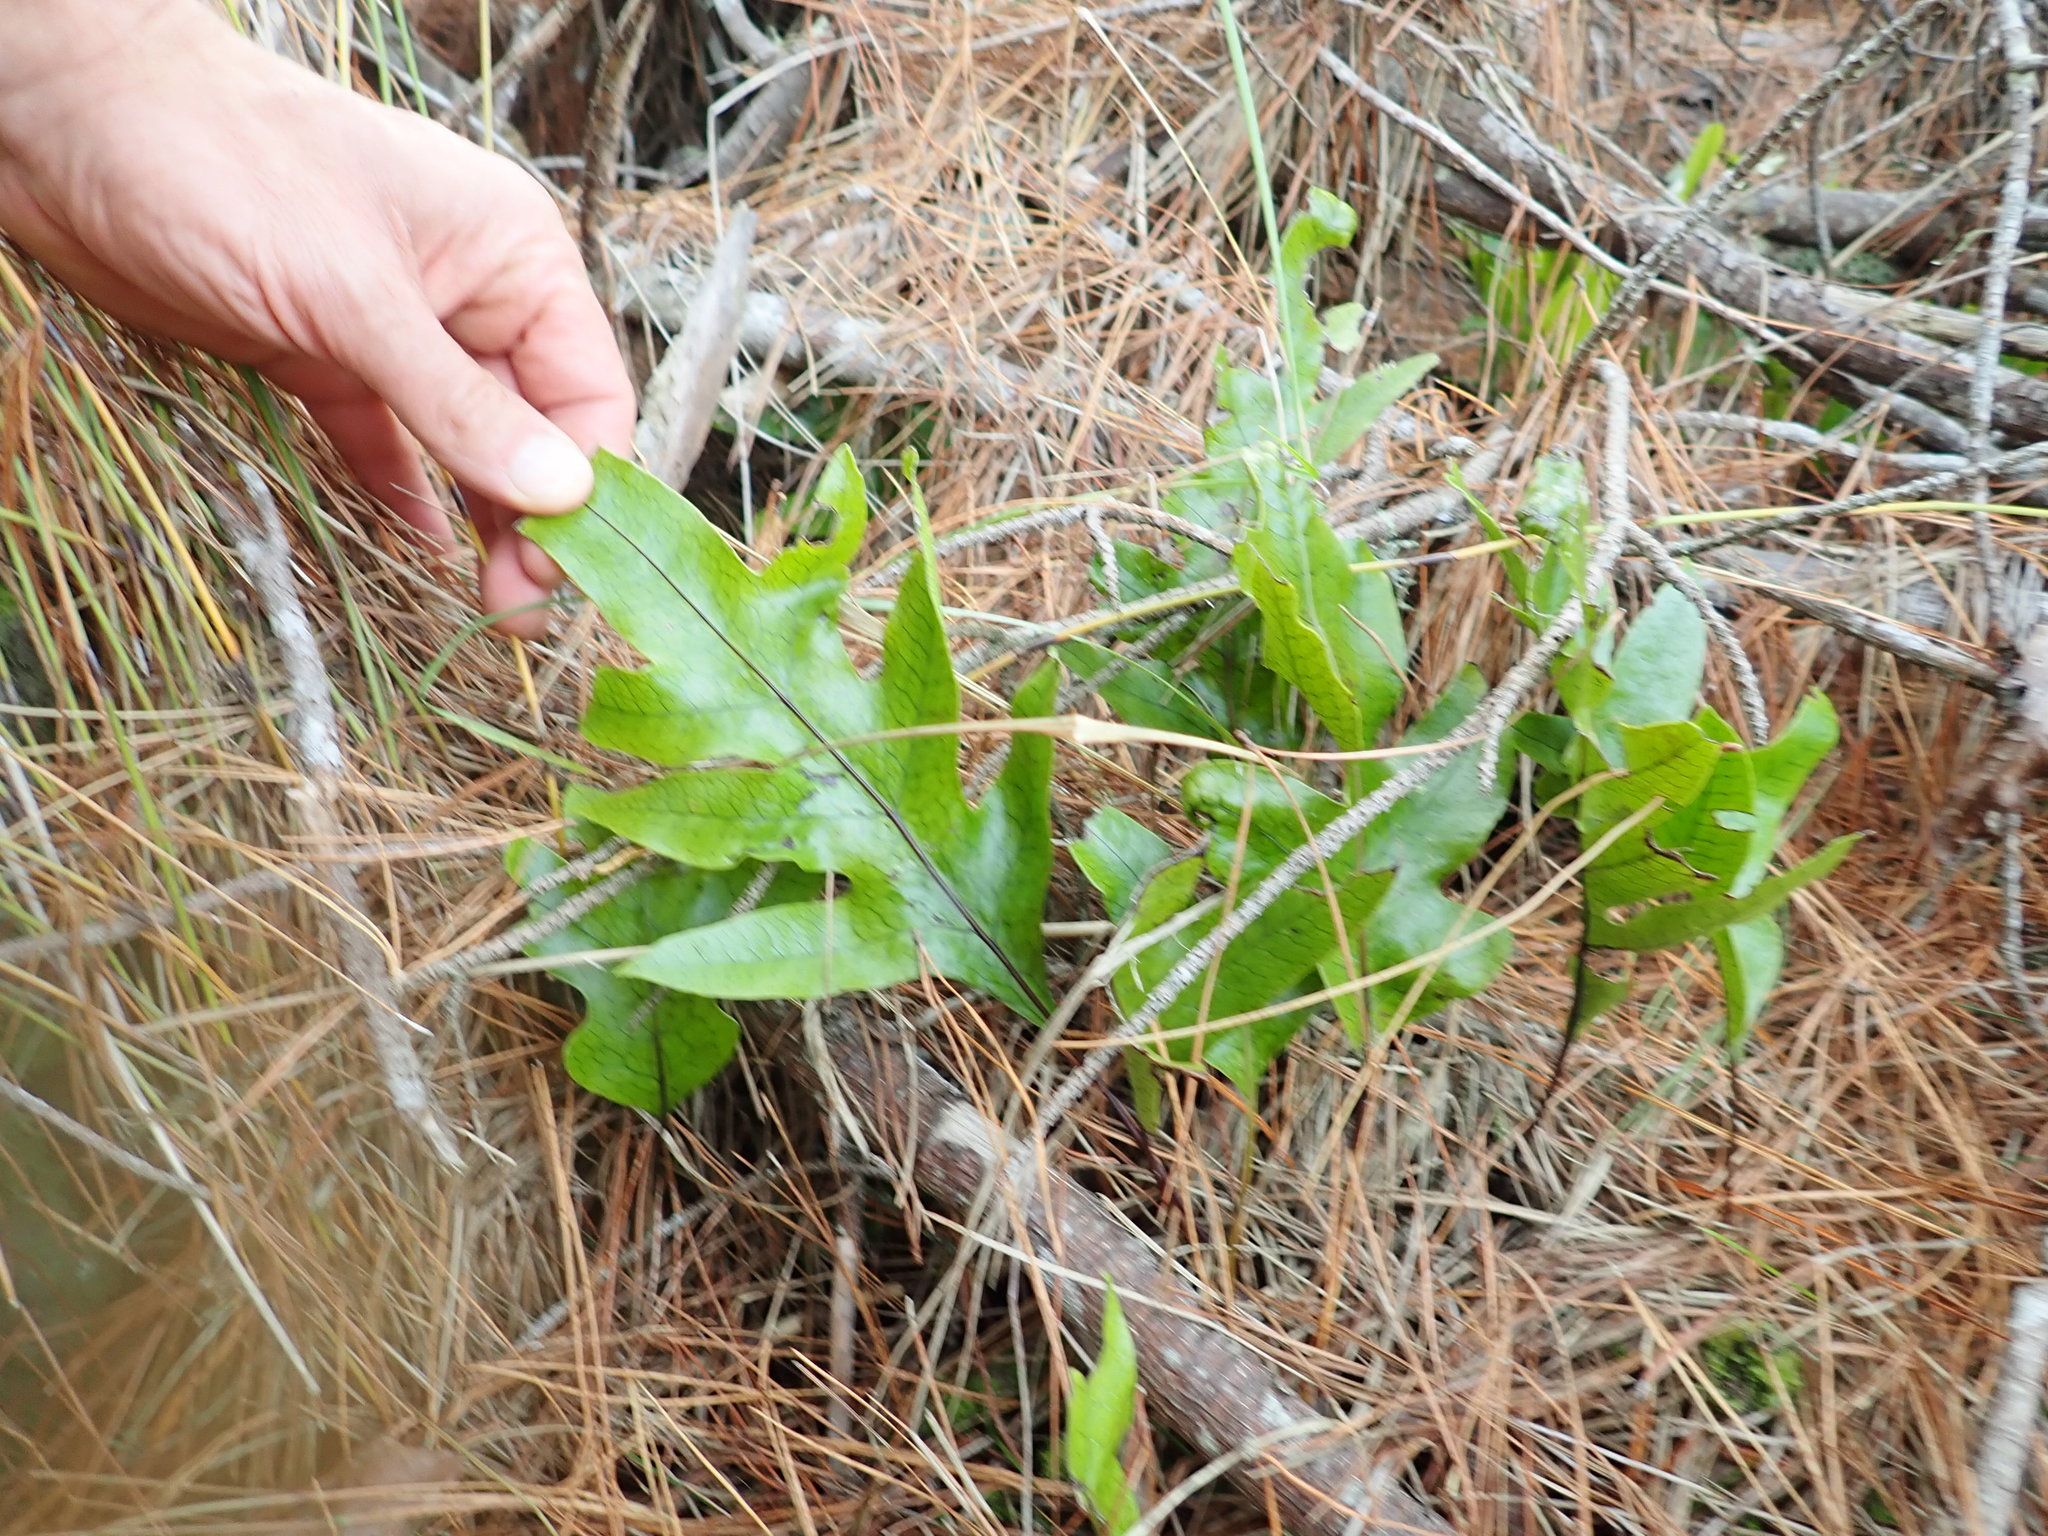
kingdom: Plantae
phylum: Tracheophyta
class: Polypodiopsida
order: Polypodiales
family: Polypodiaceae
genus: Lecanopteris
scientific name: Lecanopteris pustulata
